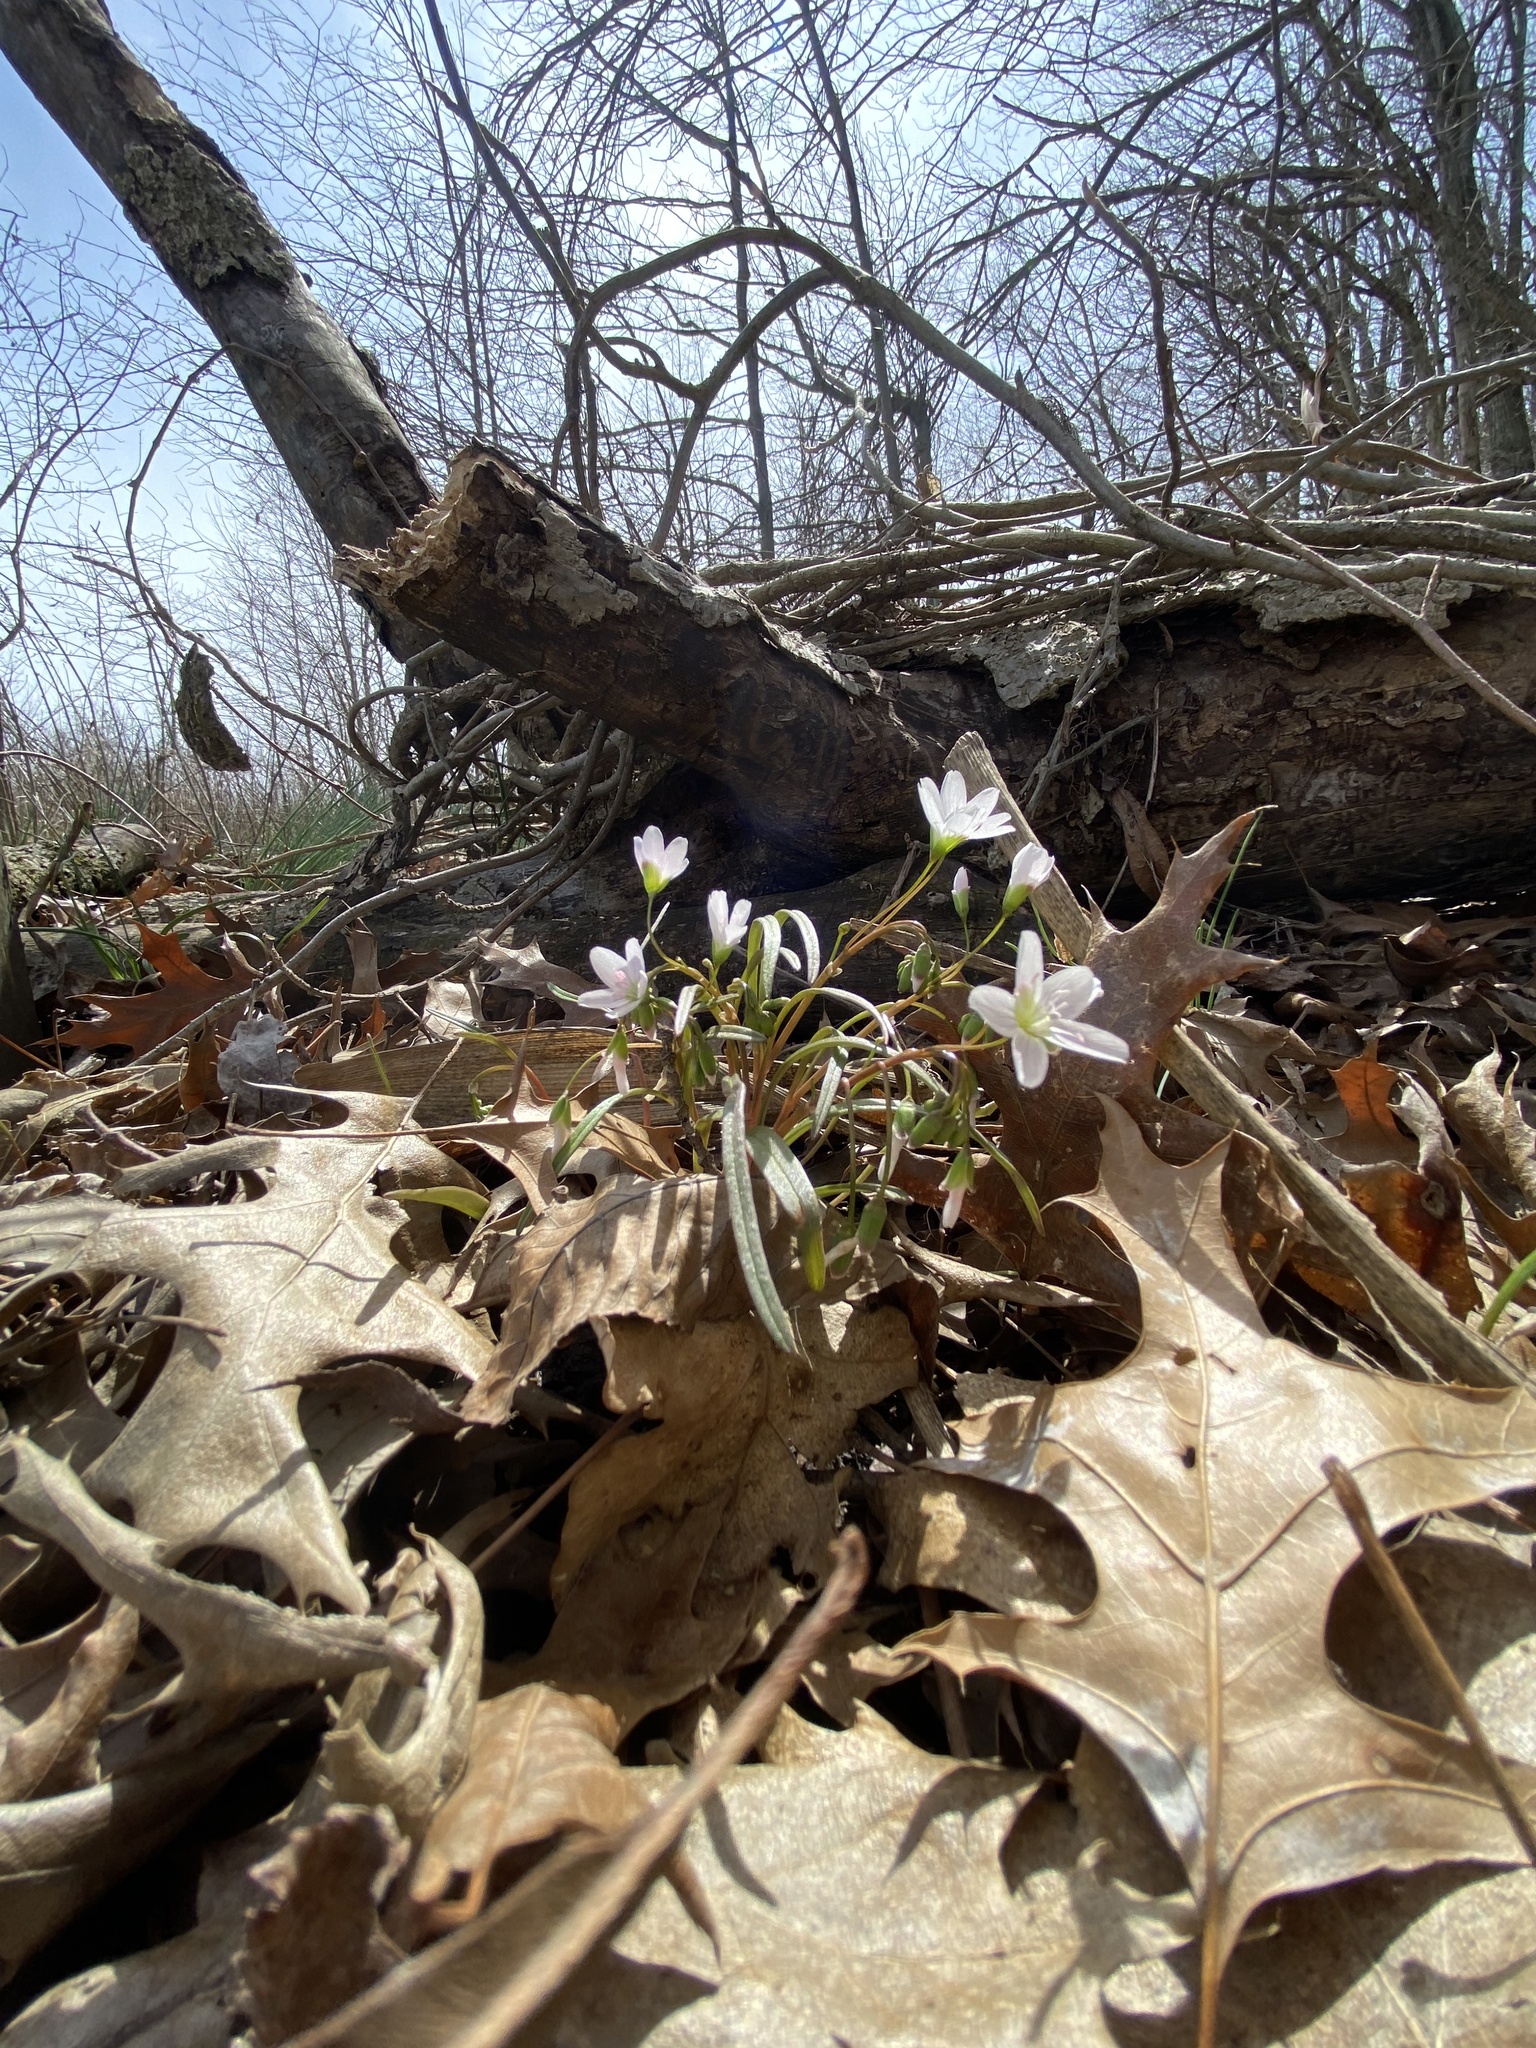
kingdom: Plantae
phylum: Tracheophyta
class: Magnoliopsida
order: Caryophyllales
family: Montiaceae
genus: Claytonia
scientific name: Claytonia virginica
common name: Virginia springbeauty
